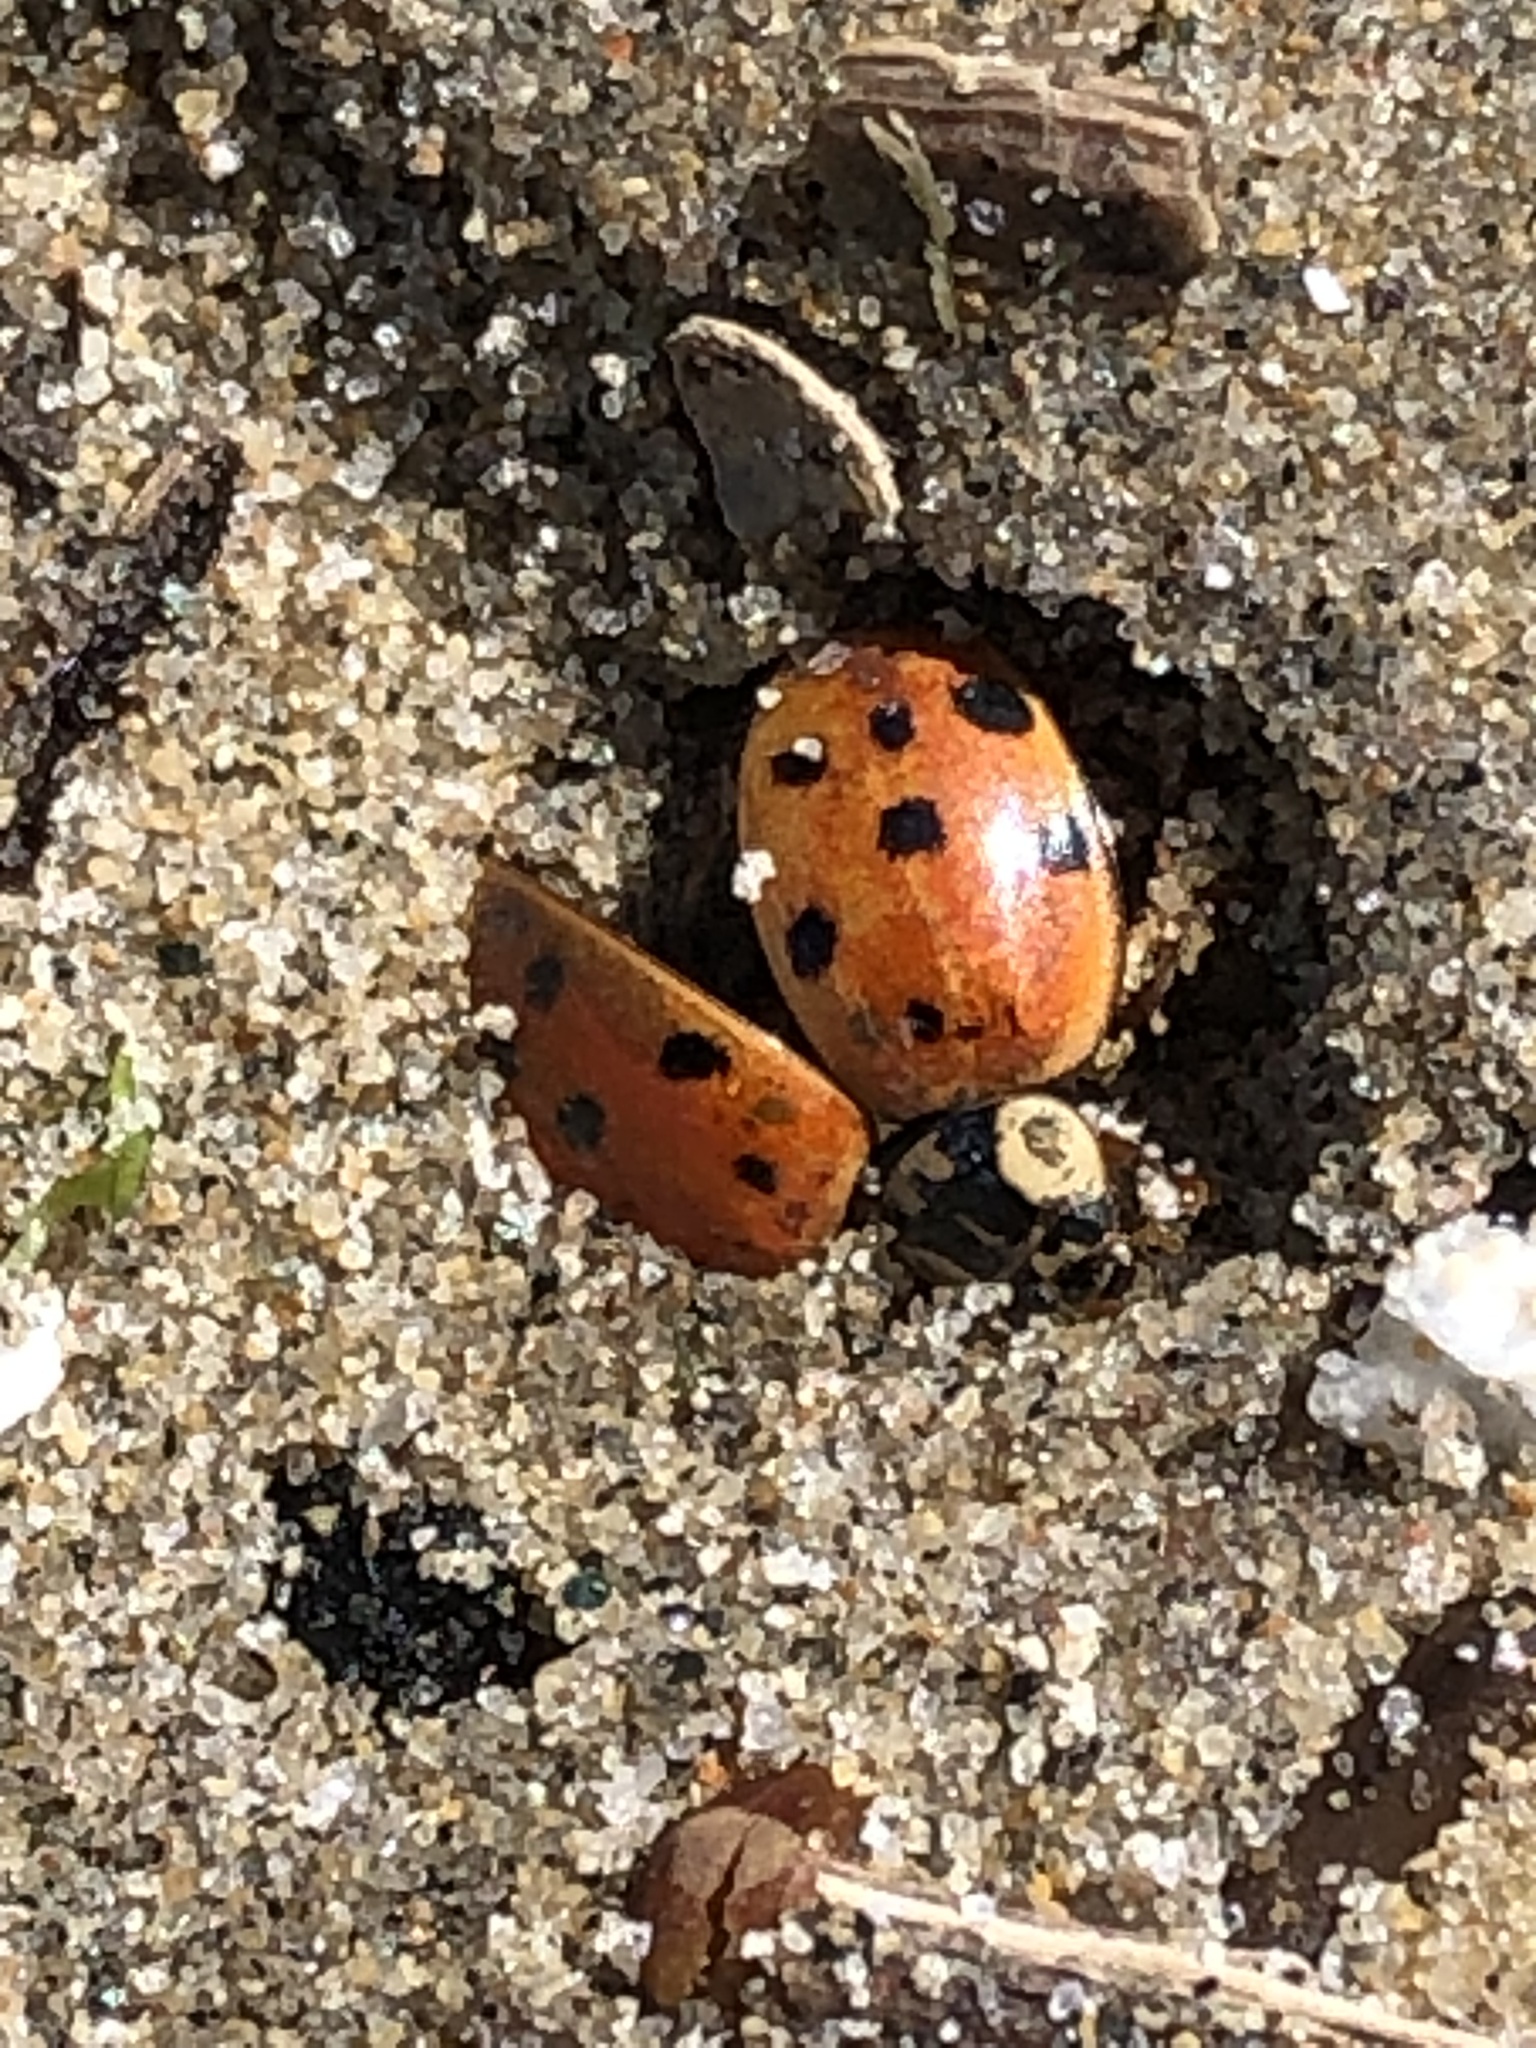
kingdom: Animalia
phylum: Arthropoda
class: Insecta
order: Coleoptera
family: Coccinellidae
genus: Harmonia
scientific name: Harmonia axyridis
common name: Harlequin ladybird
